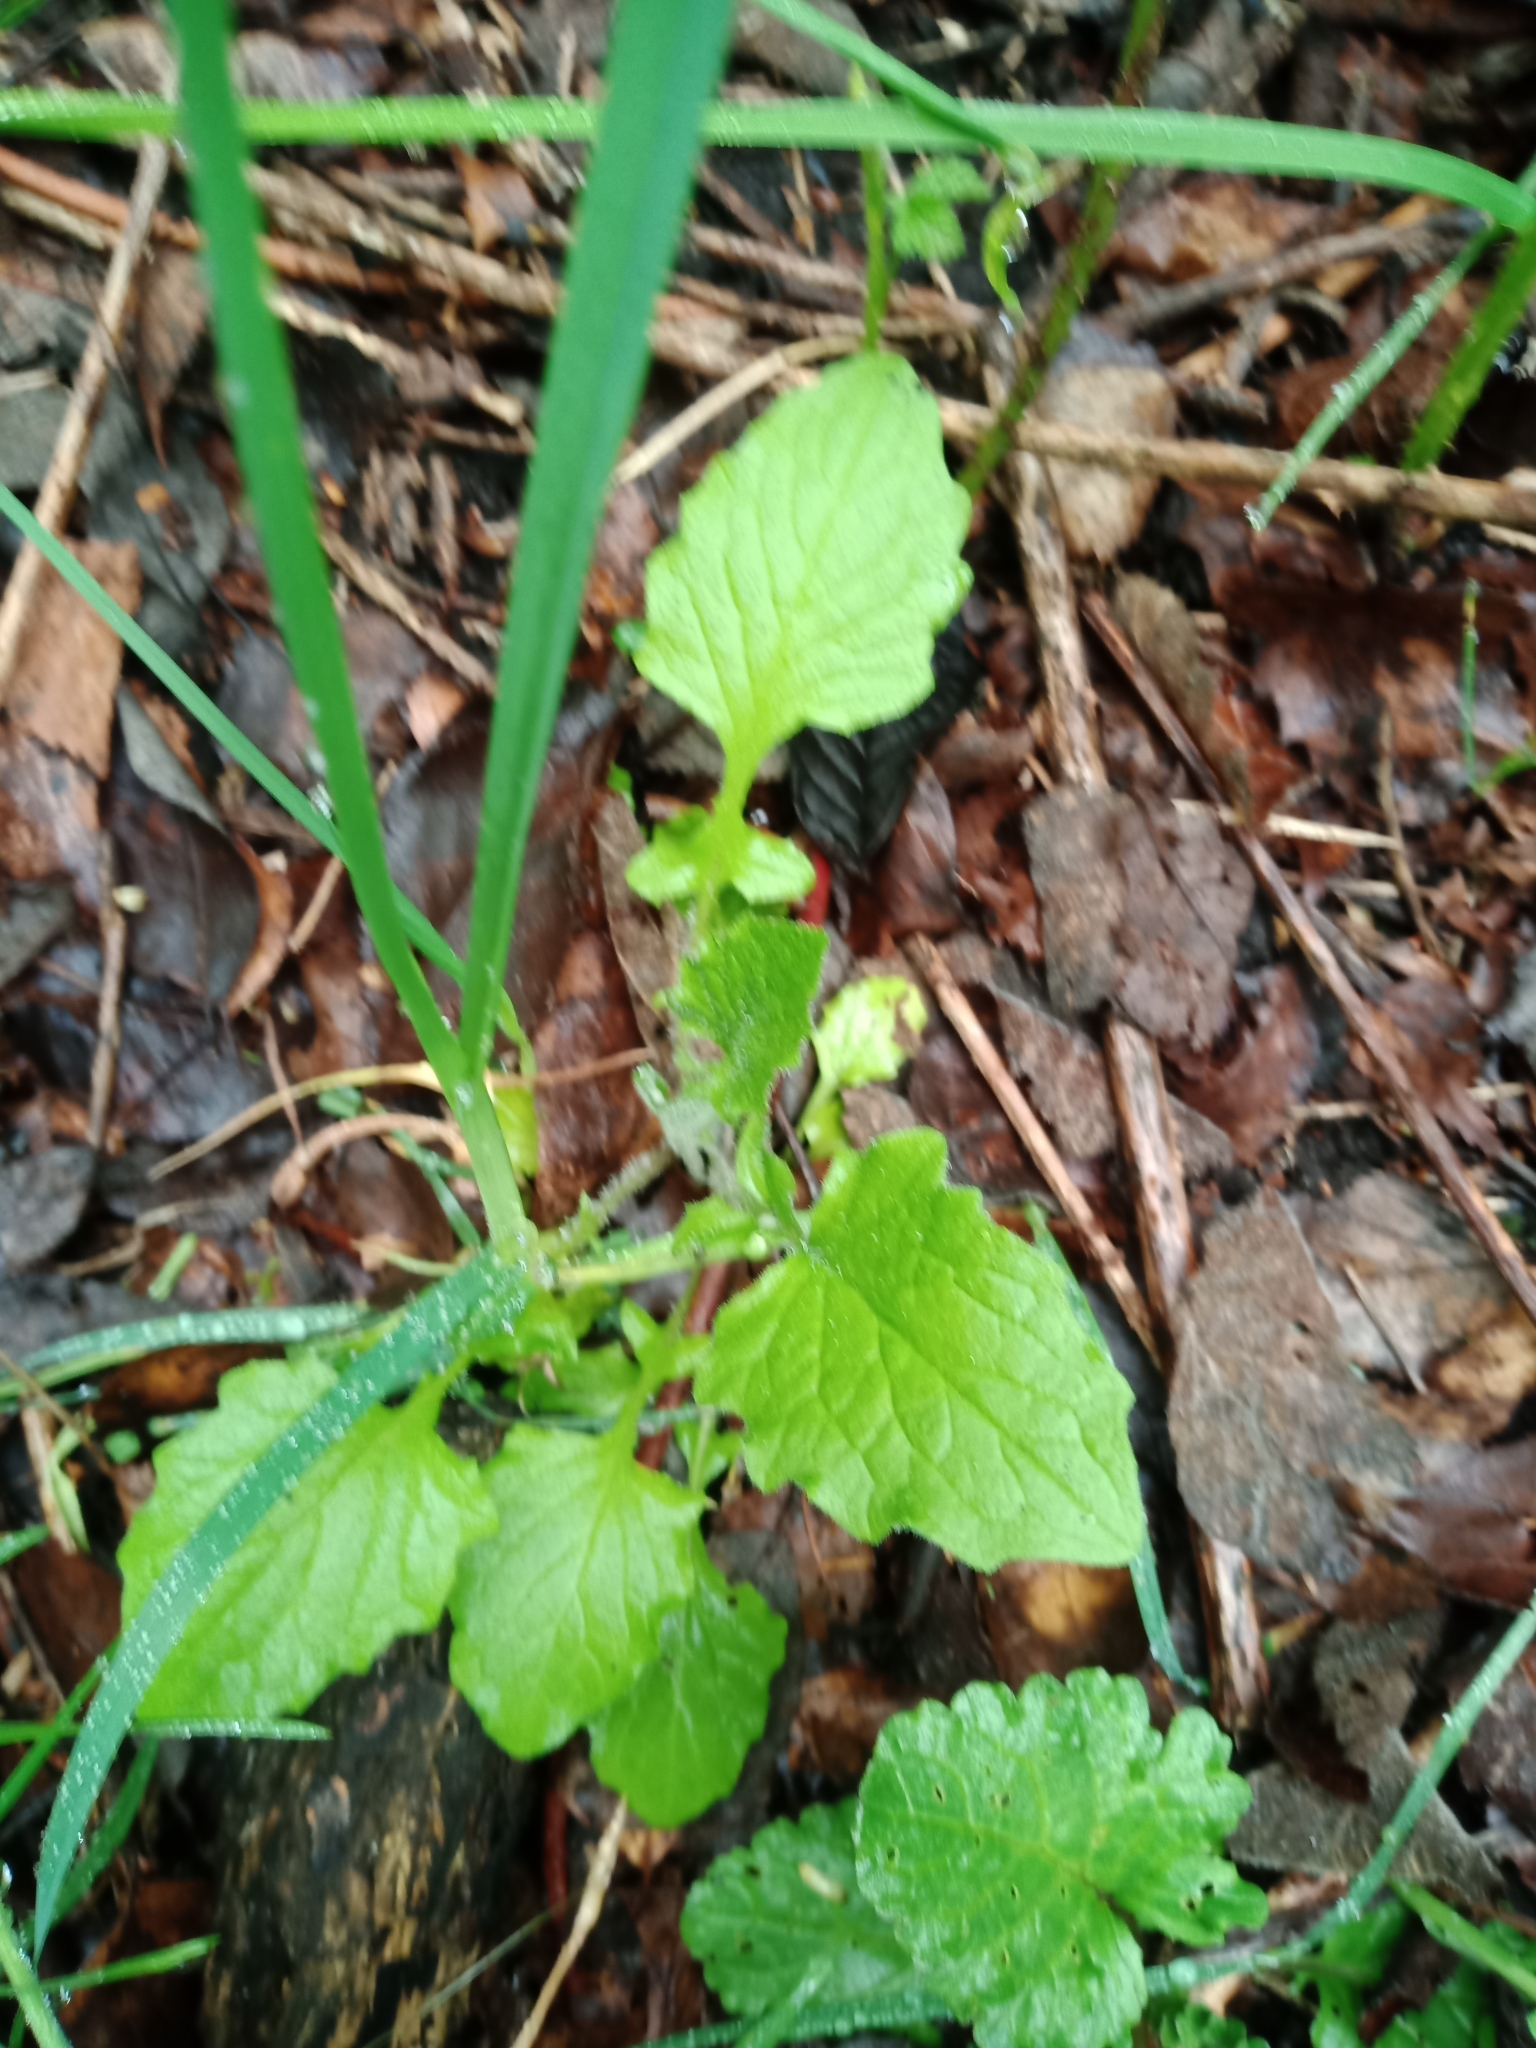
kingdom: Plantae
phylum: Tracheophyta
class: Magnoliopsida
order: Asterales
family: Asteraceae
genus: Lapsana
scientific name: Lapsana communis
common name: Nipplewort
